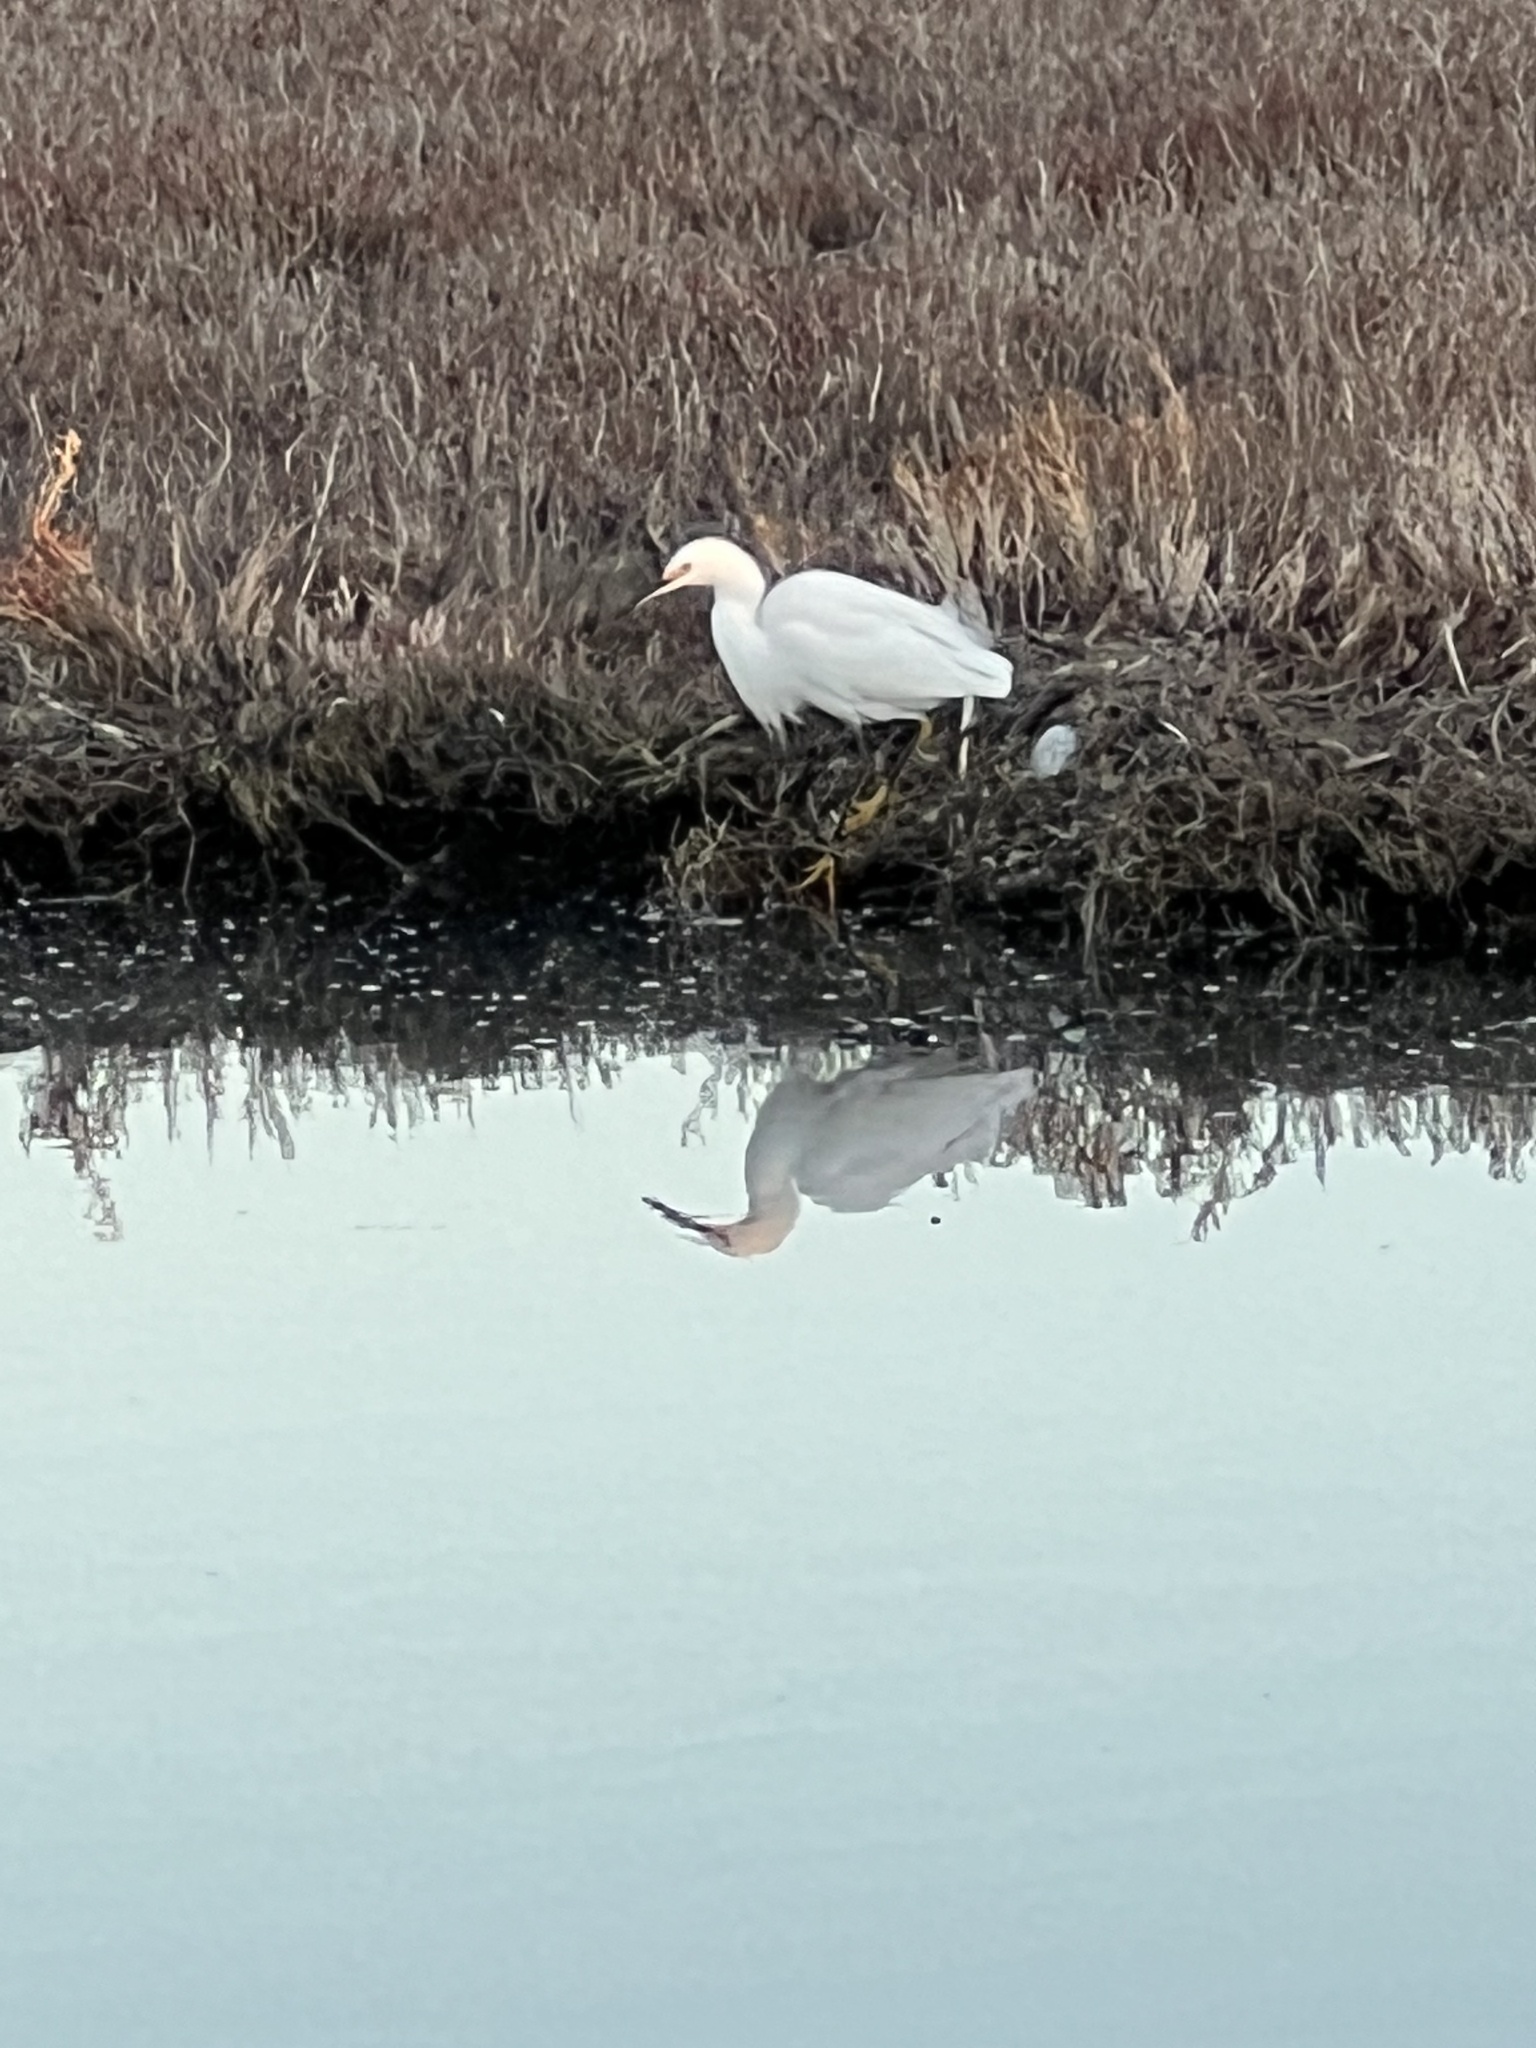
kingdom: Animalia
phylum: Chordata
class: Aves
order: Pelecaniformes
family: Ardeidae
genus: Egretta
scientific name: Egretta thula
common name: Snowy egret
